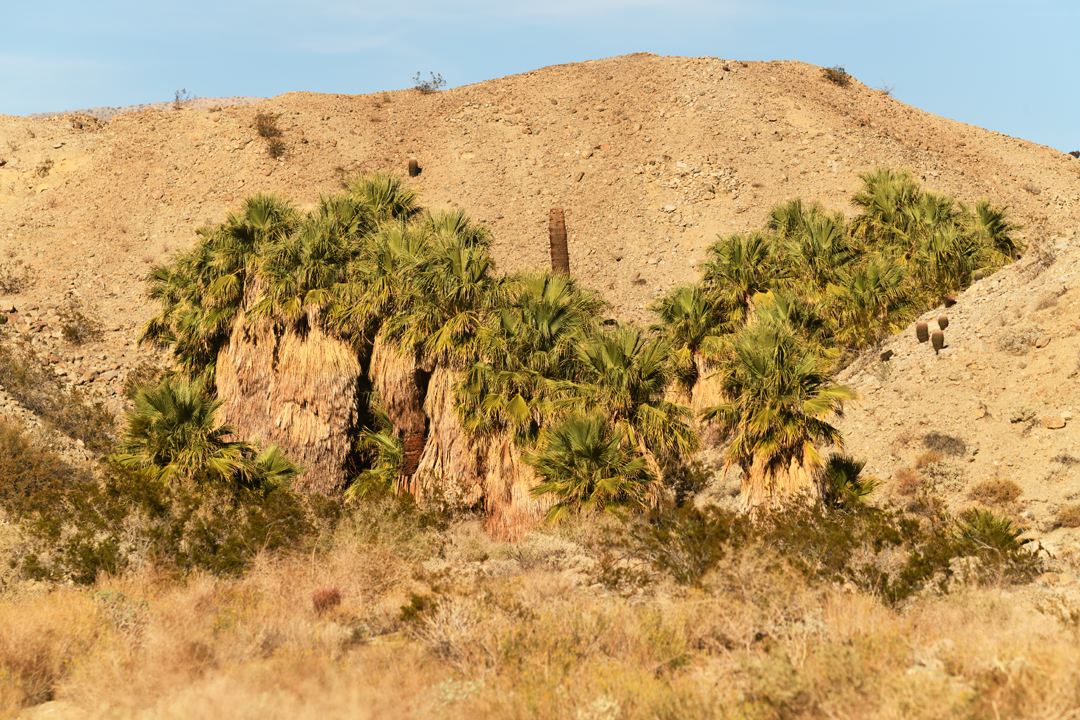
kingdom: Plantae
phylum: Tracheophyta
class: Liliopsida
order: Arecales
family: Arecaceae
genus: Washingtonia
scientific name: Washingtonia filifera
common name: California fan palm
